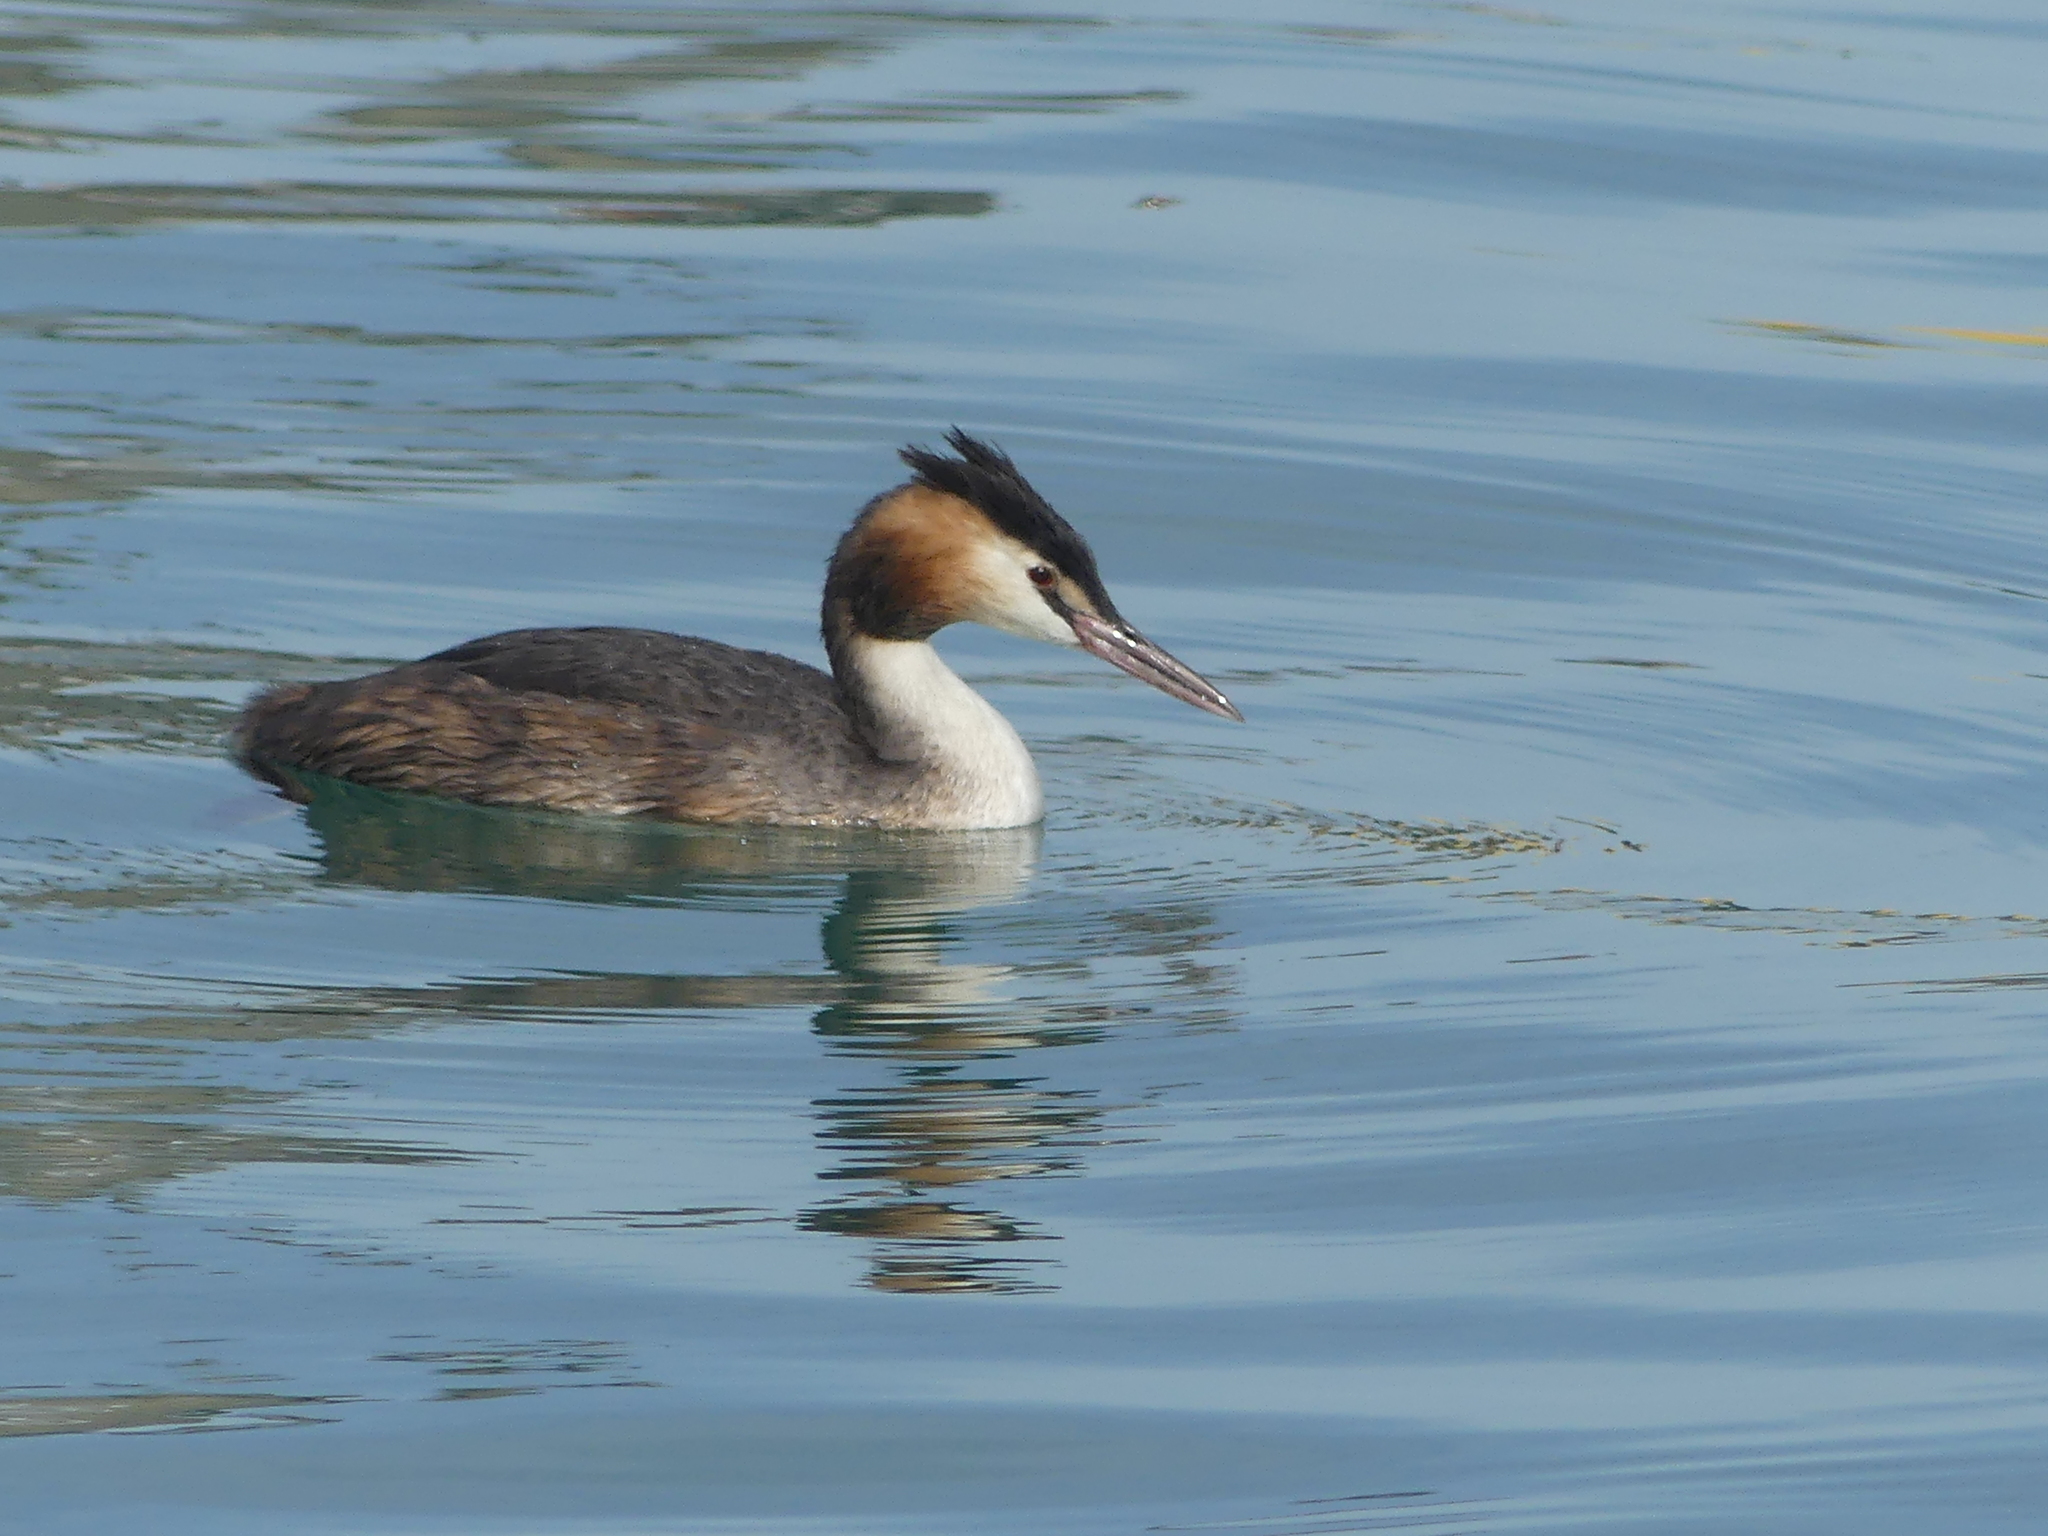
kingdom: Animalia
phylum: Chordata
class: Aves
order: Podicipediformes
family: Podicipedidae
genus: Podiceps
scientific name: Podiceps cristatus
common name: Great crested grebe
